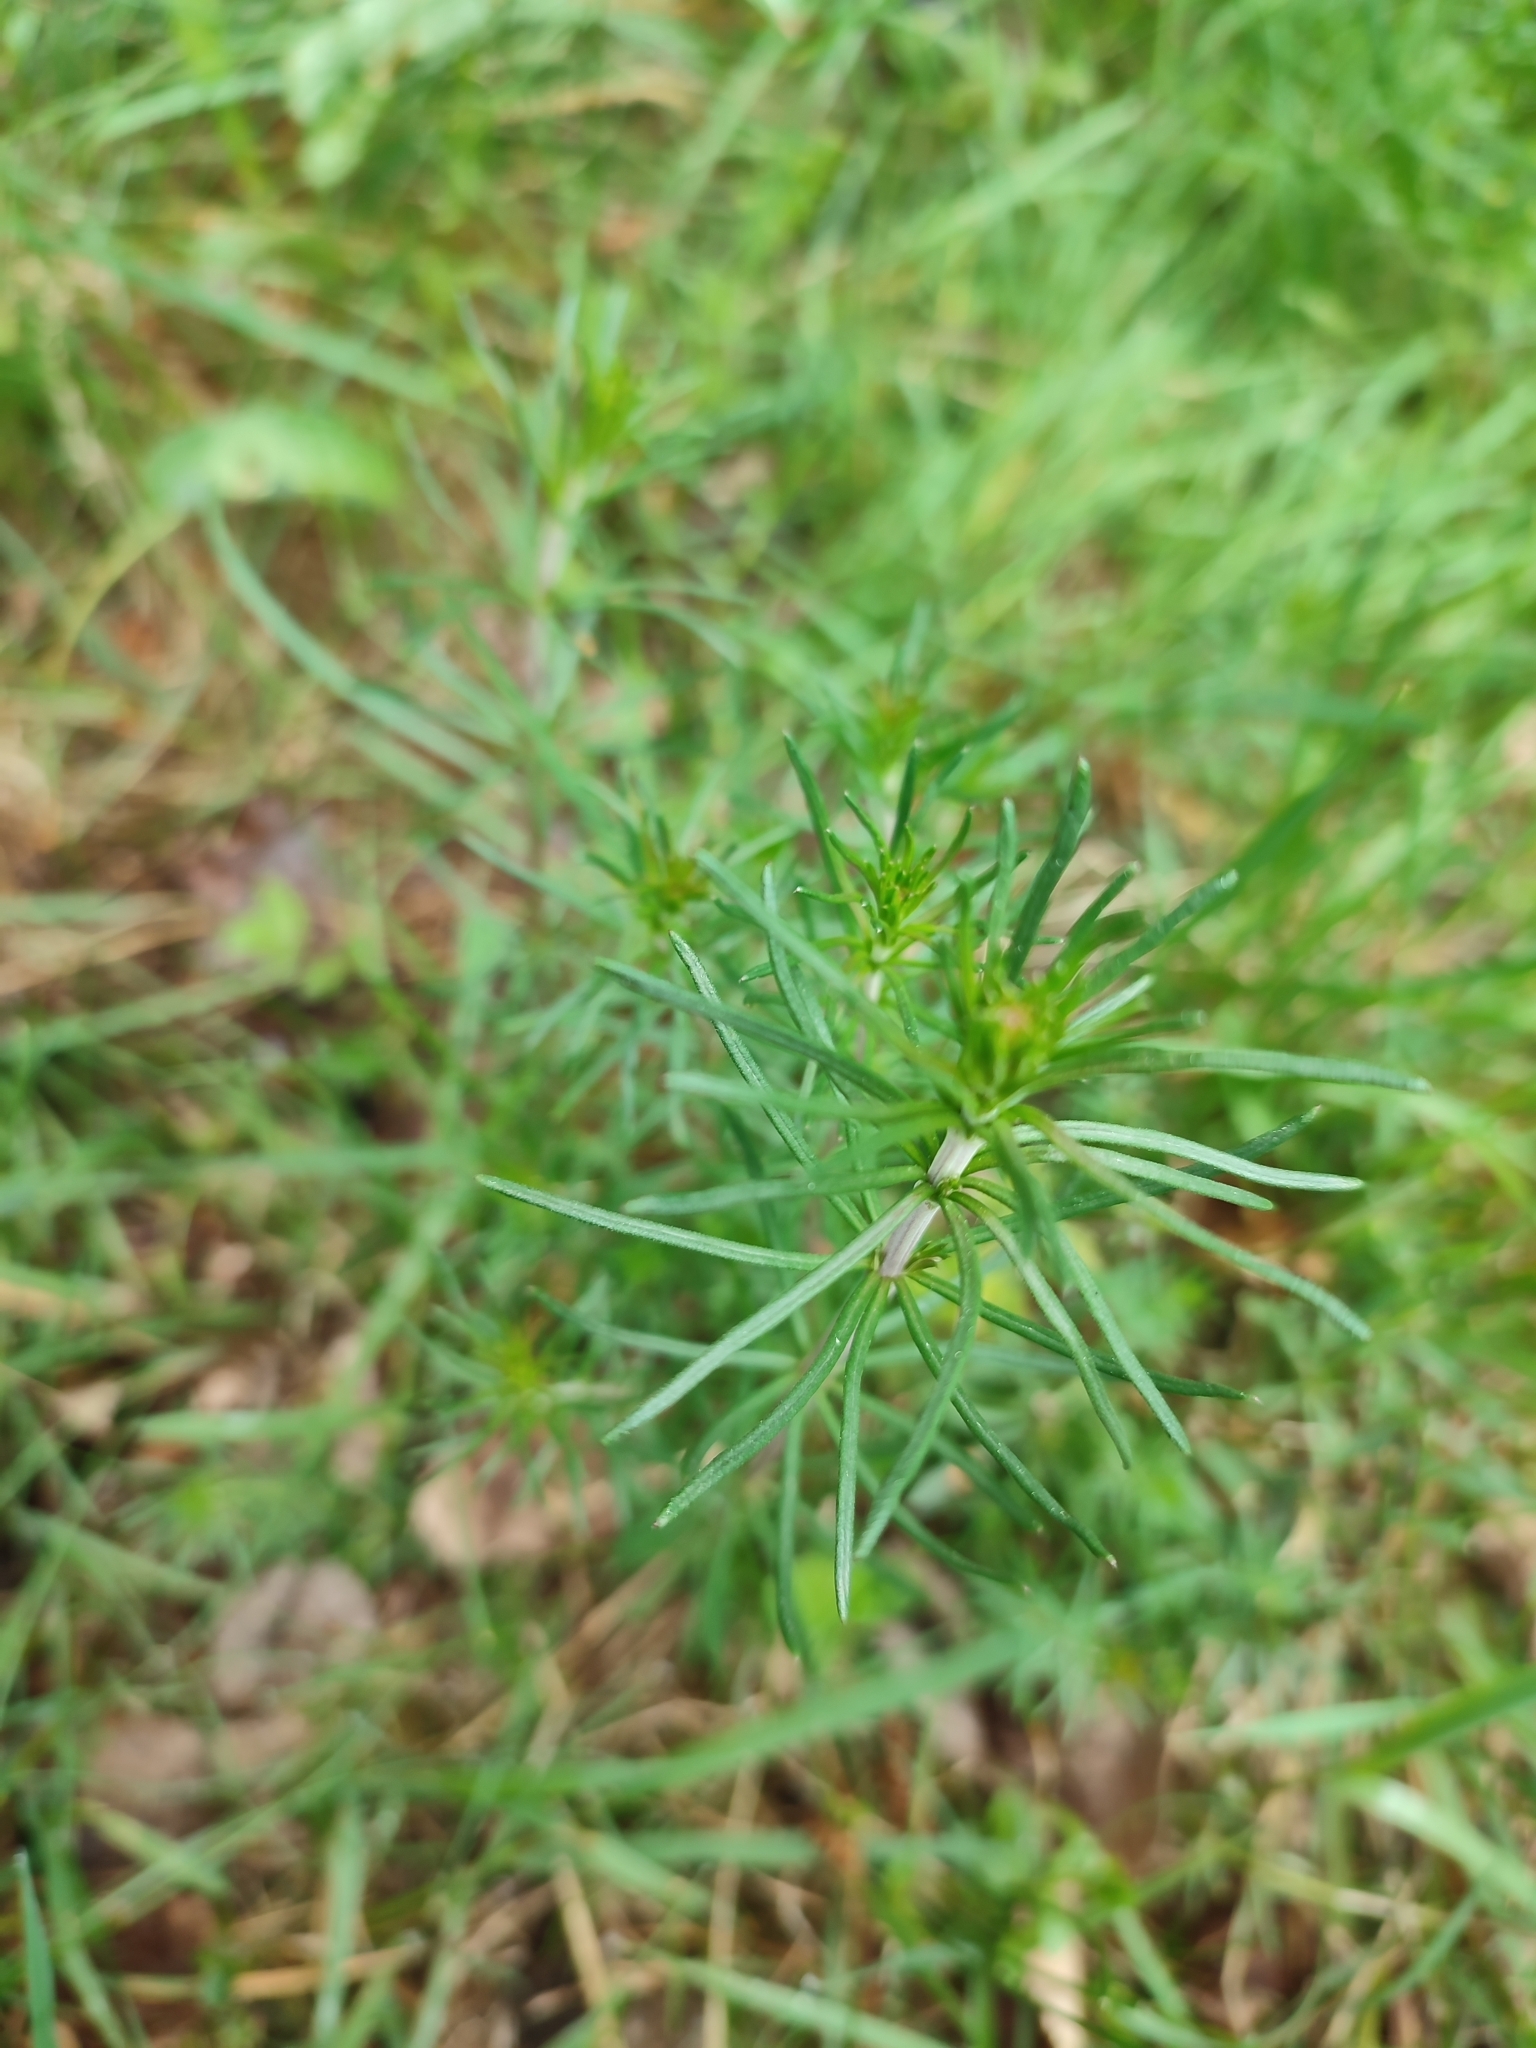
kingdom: Plantae
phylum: Tracheophyta
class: Magnoliopsida
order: Gentianales
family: Rubiaceae
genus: Galium
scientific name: Galium verum
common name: Lady's bedstraw
